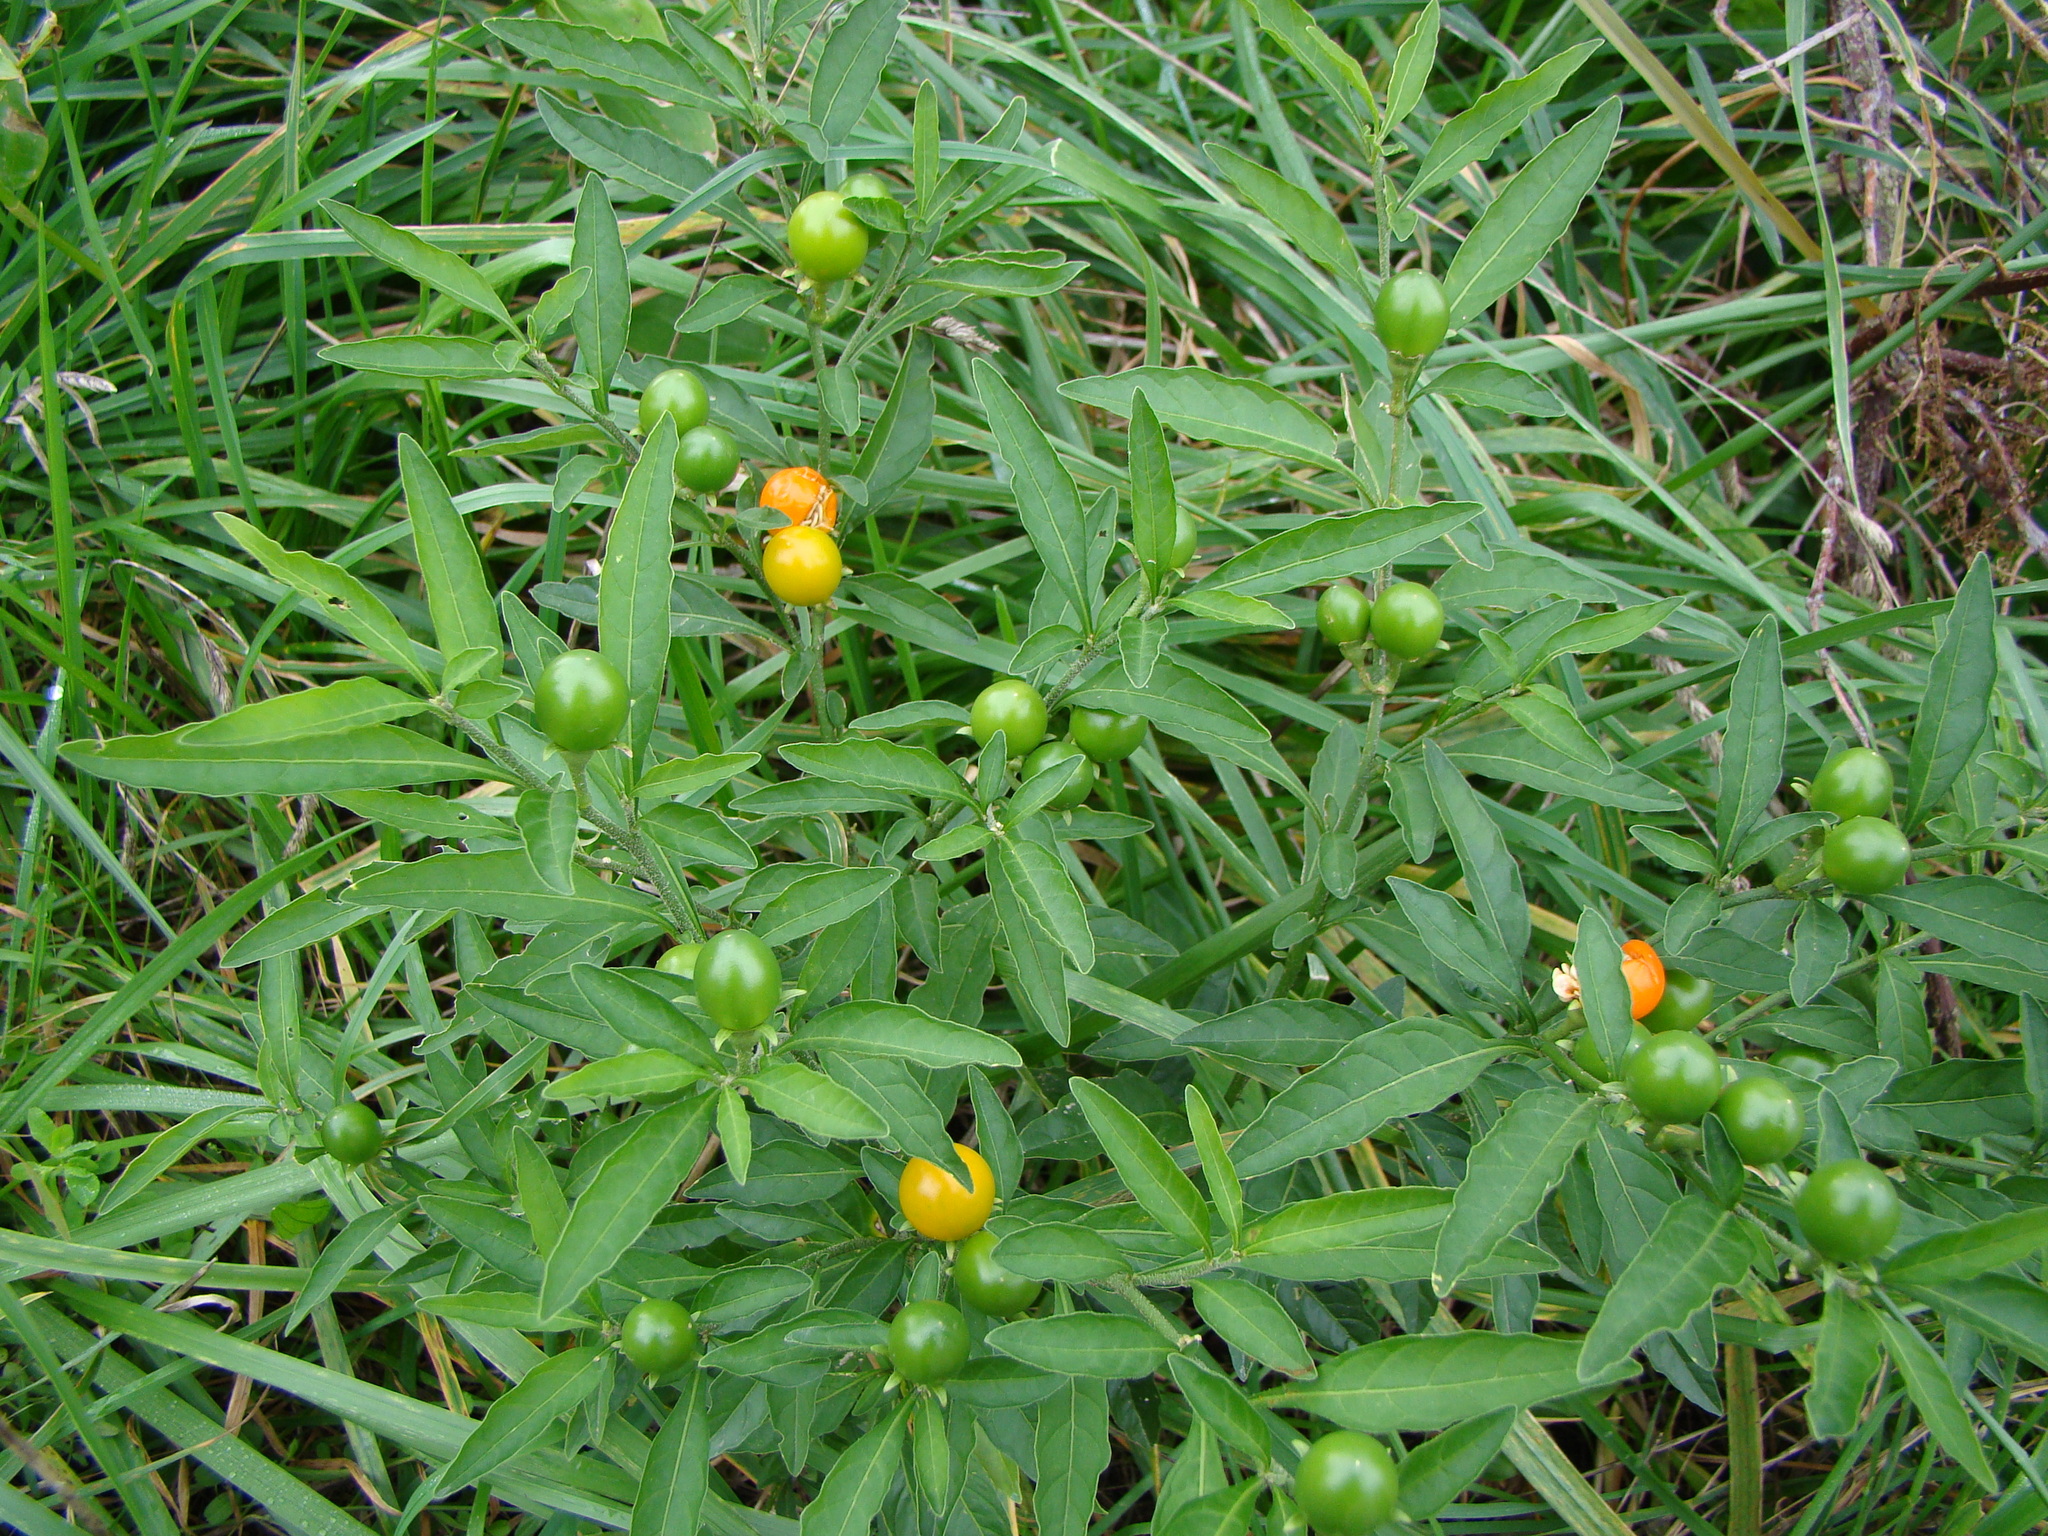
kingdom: Plantae
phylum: Tracheophyta
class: Magnoliopsida
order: Solanales
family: Solanaceae
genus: Solanum
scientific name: Solanum pseudocapsicum
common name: Jerusalem cherry
